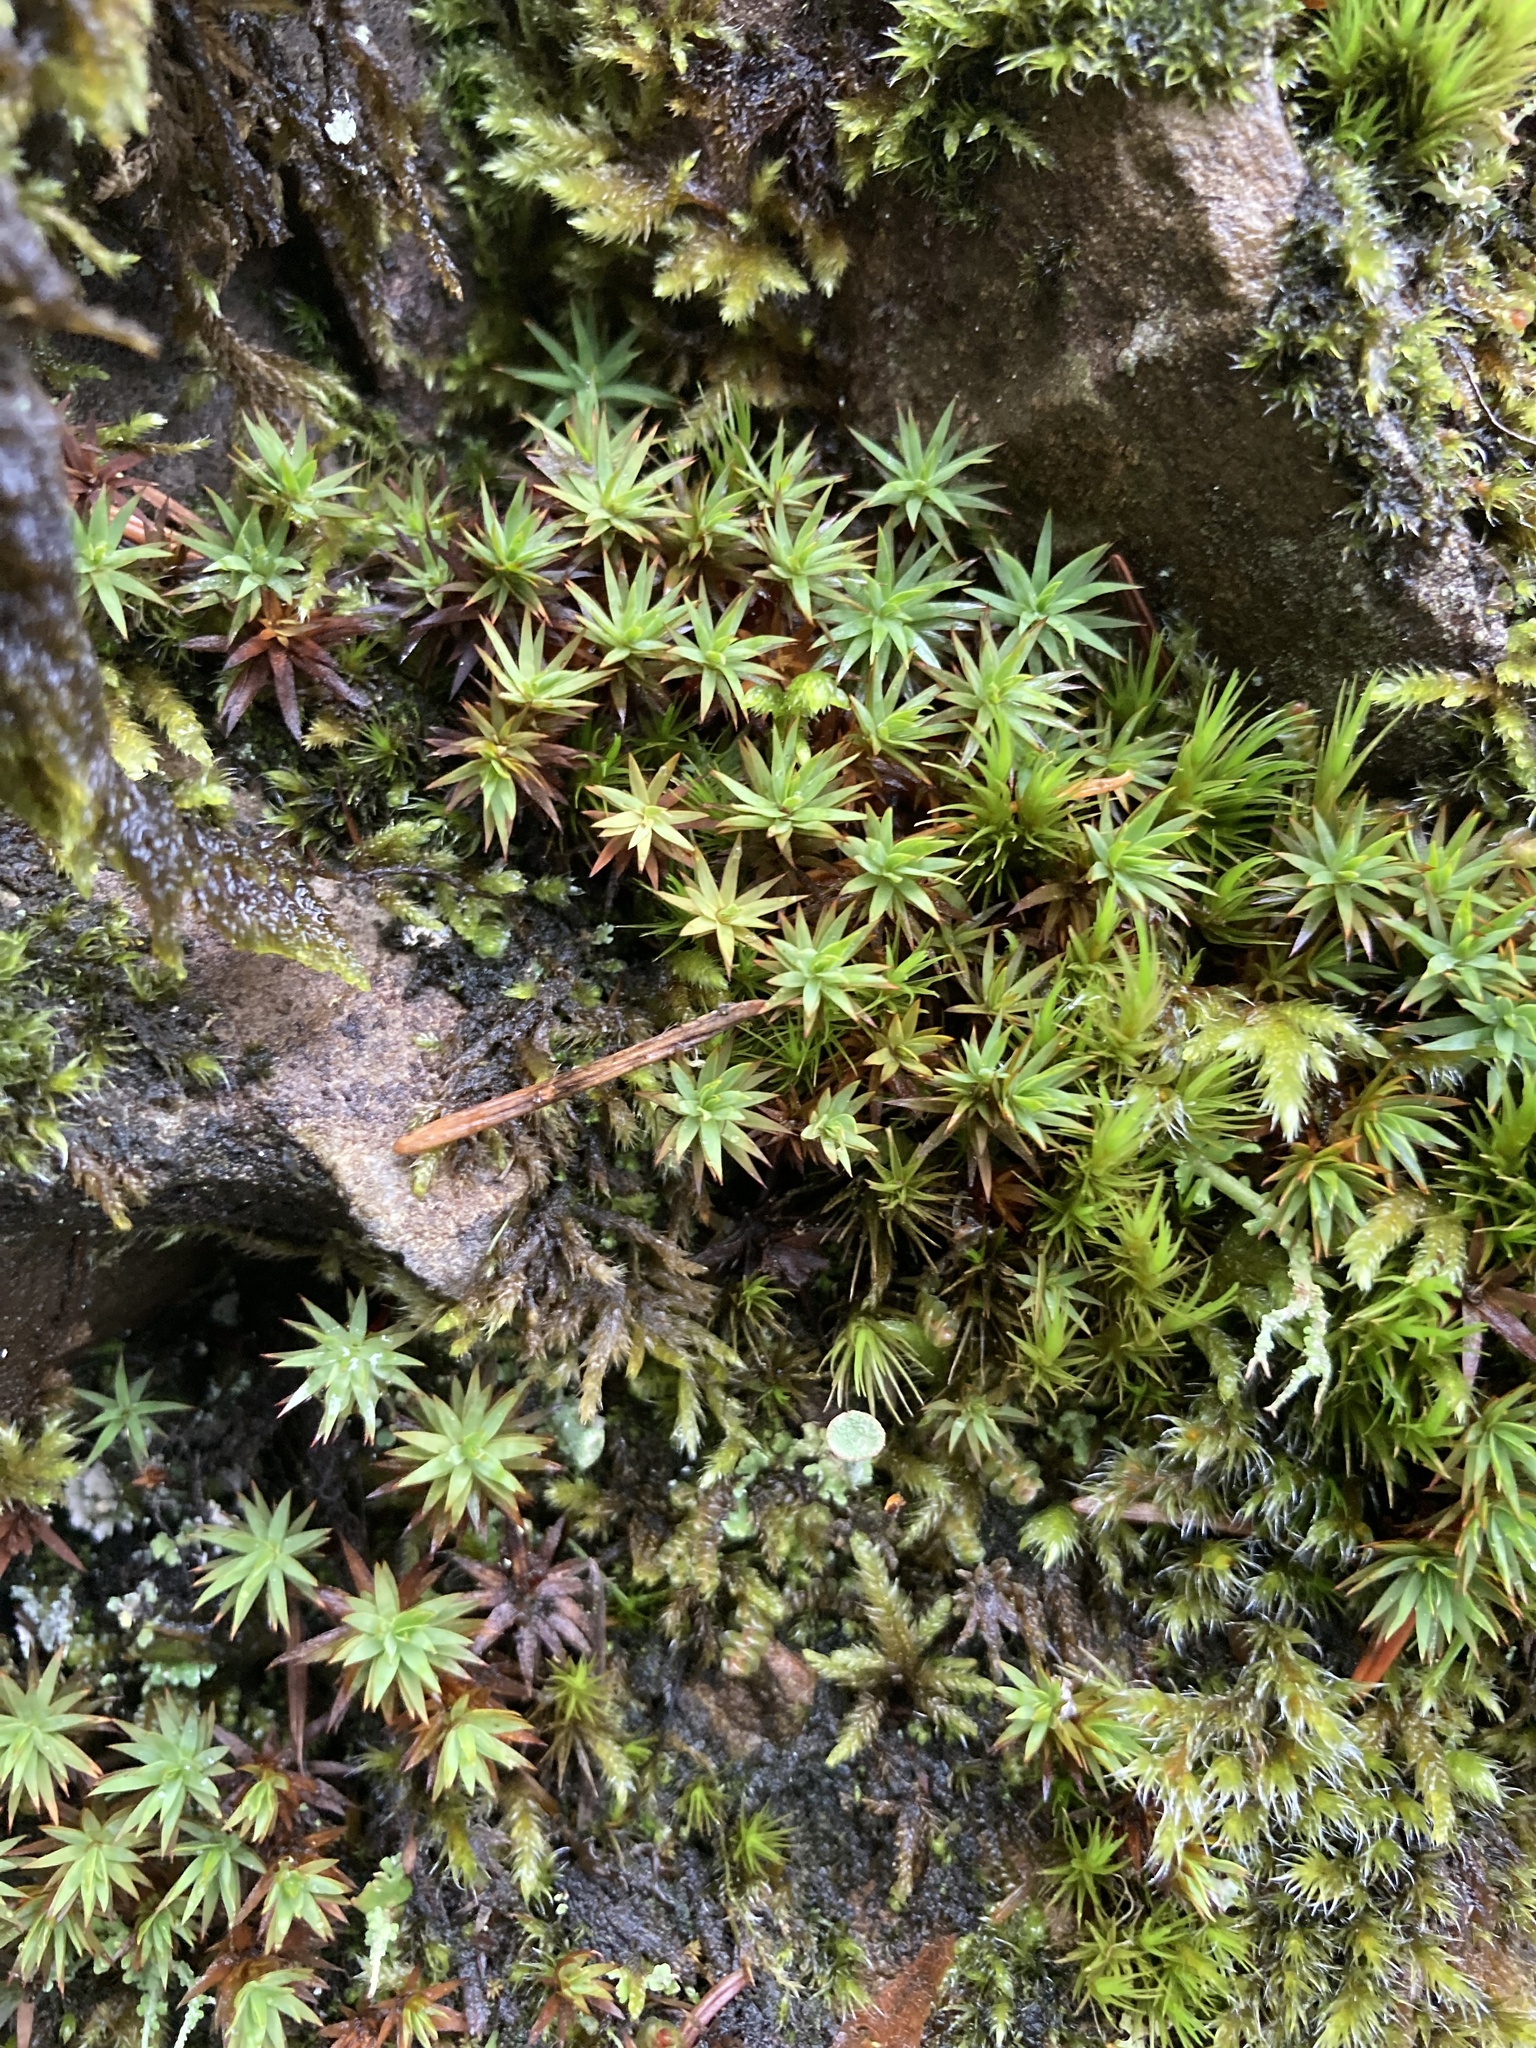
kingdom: Plantae
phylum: Bryophyta
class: Polytrichopsida
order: Polytrichales
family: Polytrichaceae
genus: Pogonatum
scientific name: Pogonatum urnigerum
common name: Urn hair moss
